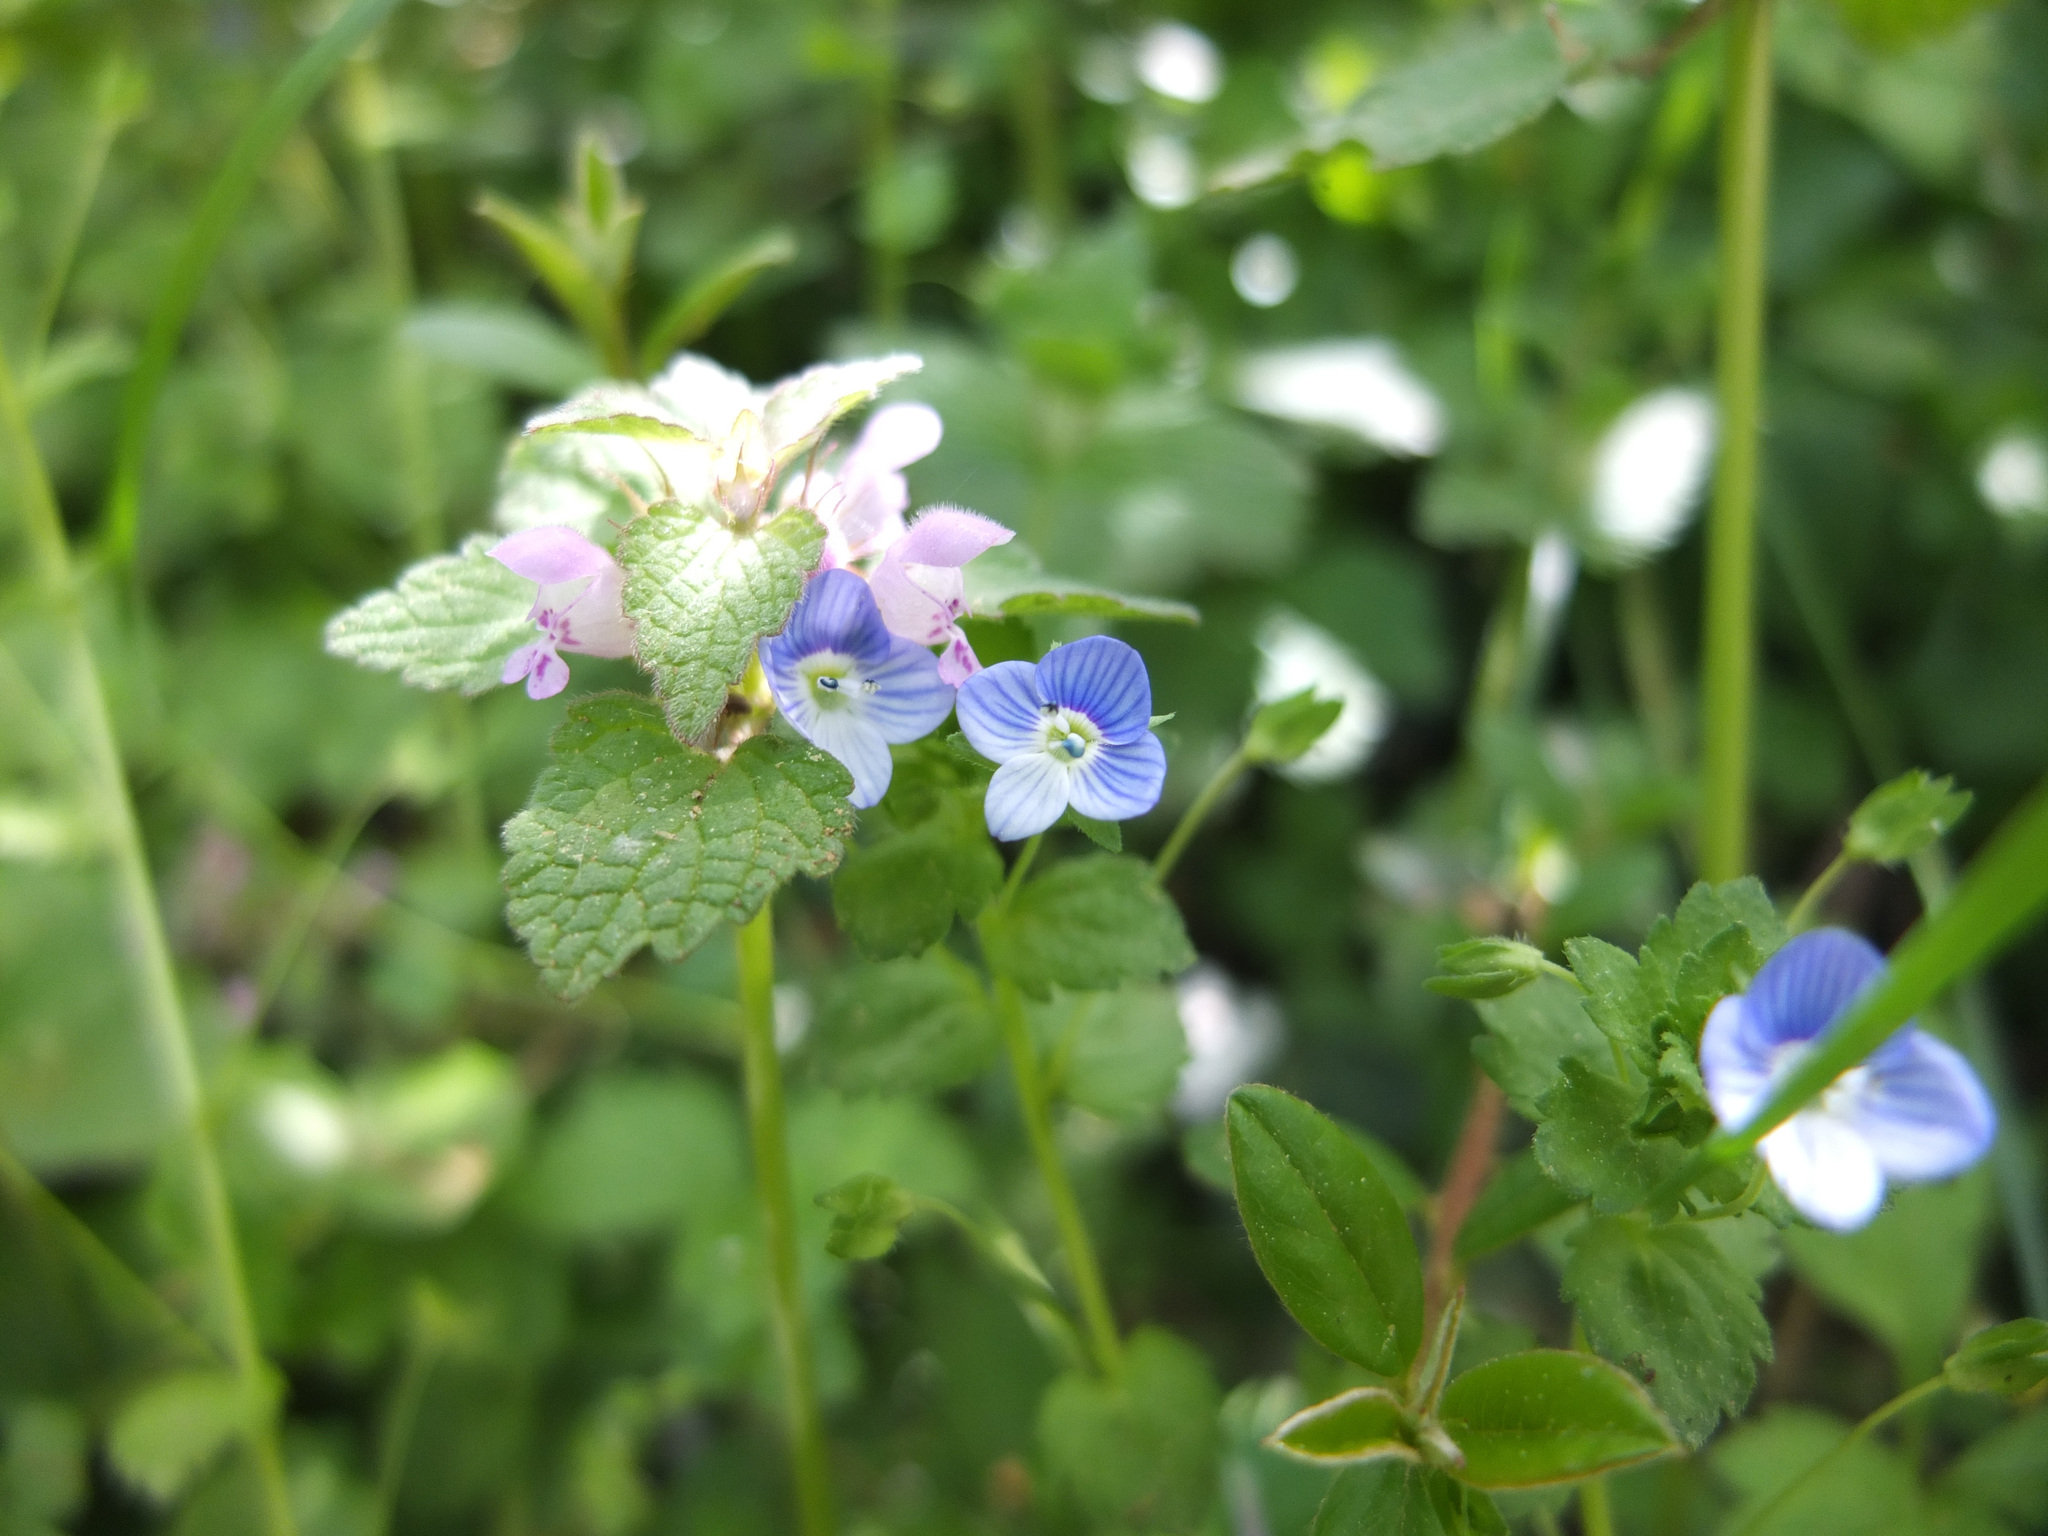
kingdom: Plantae
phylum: Tracheophyta
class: Magnoliopsida
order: Lamiales
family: Plantaginaceae
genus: Veronica
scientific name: Veronica persica
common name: Common field-speedwell
